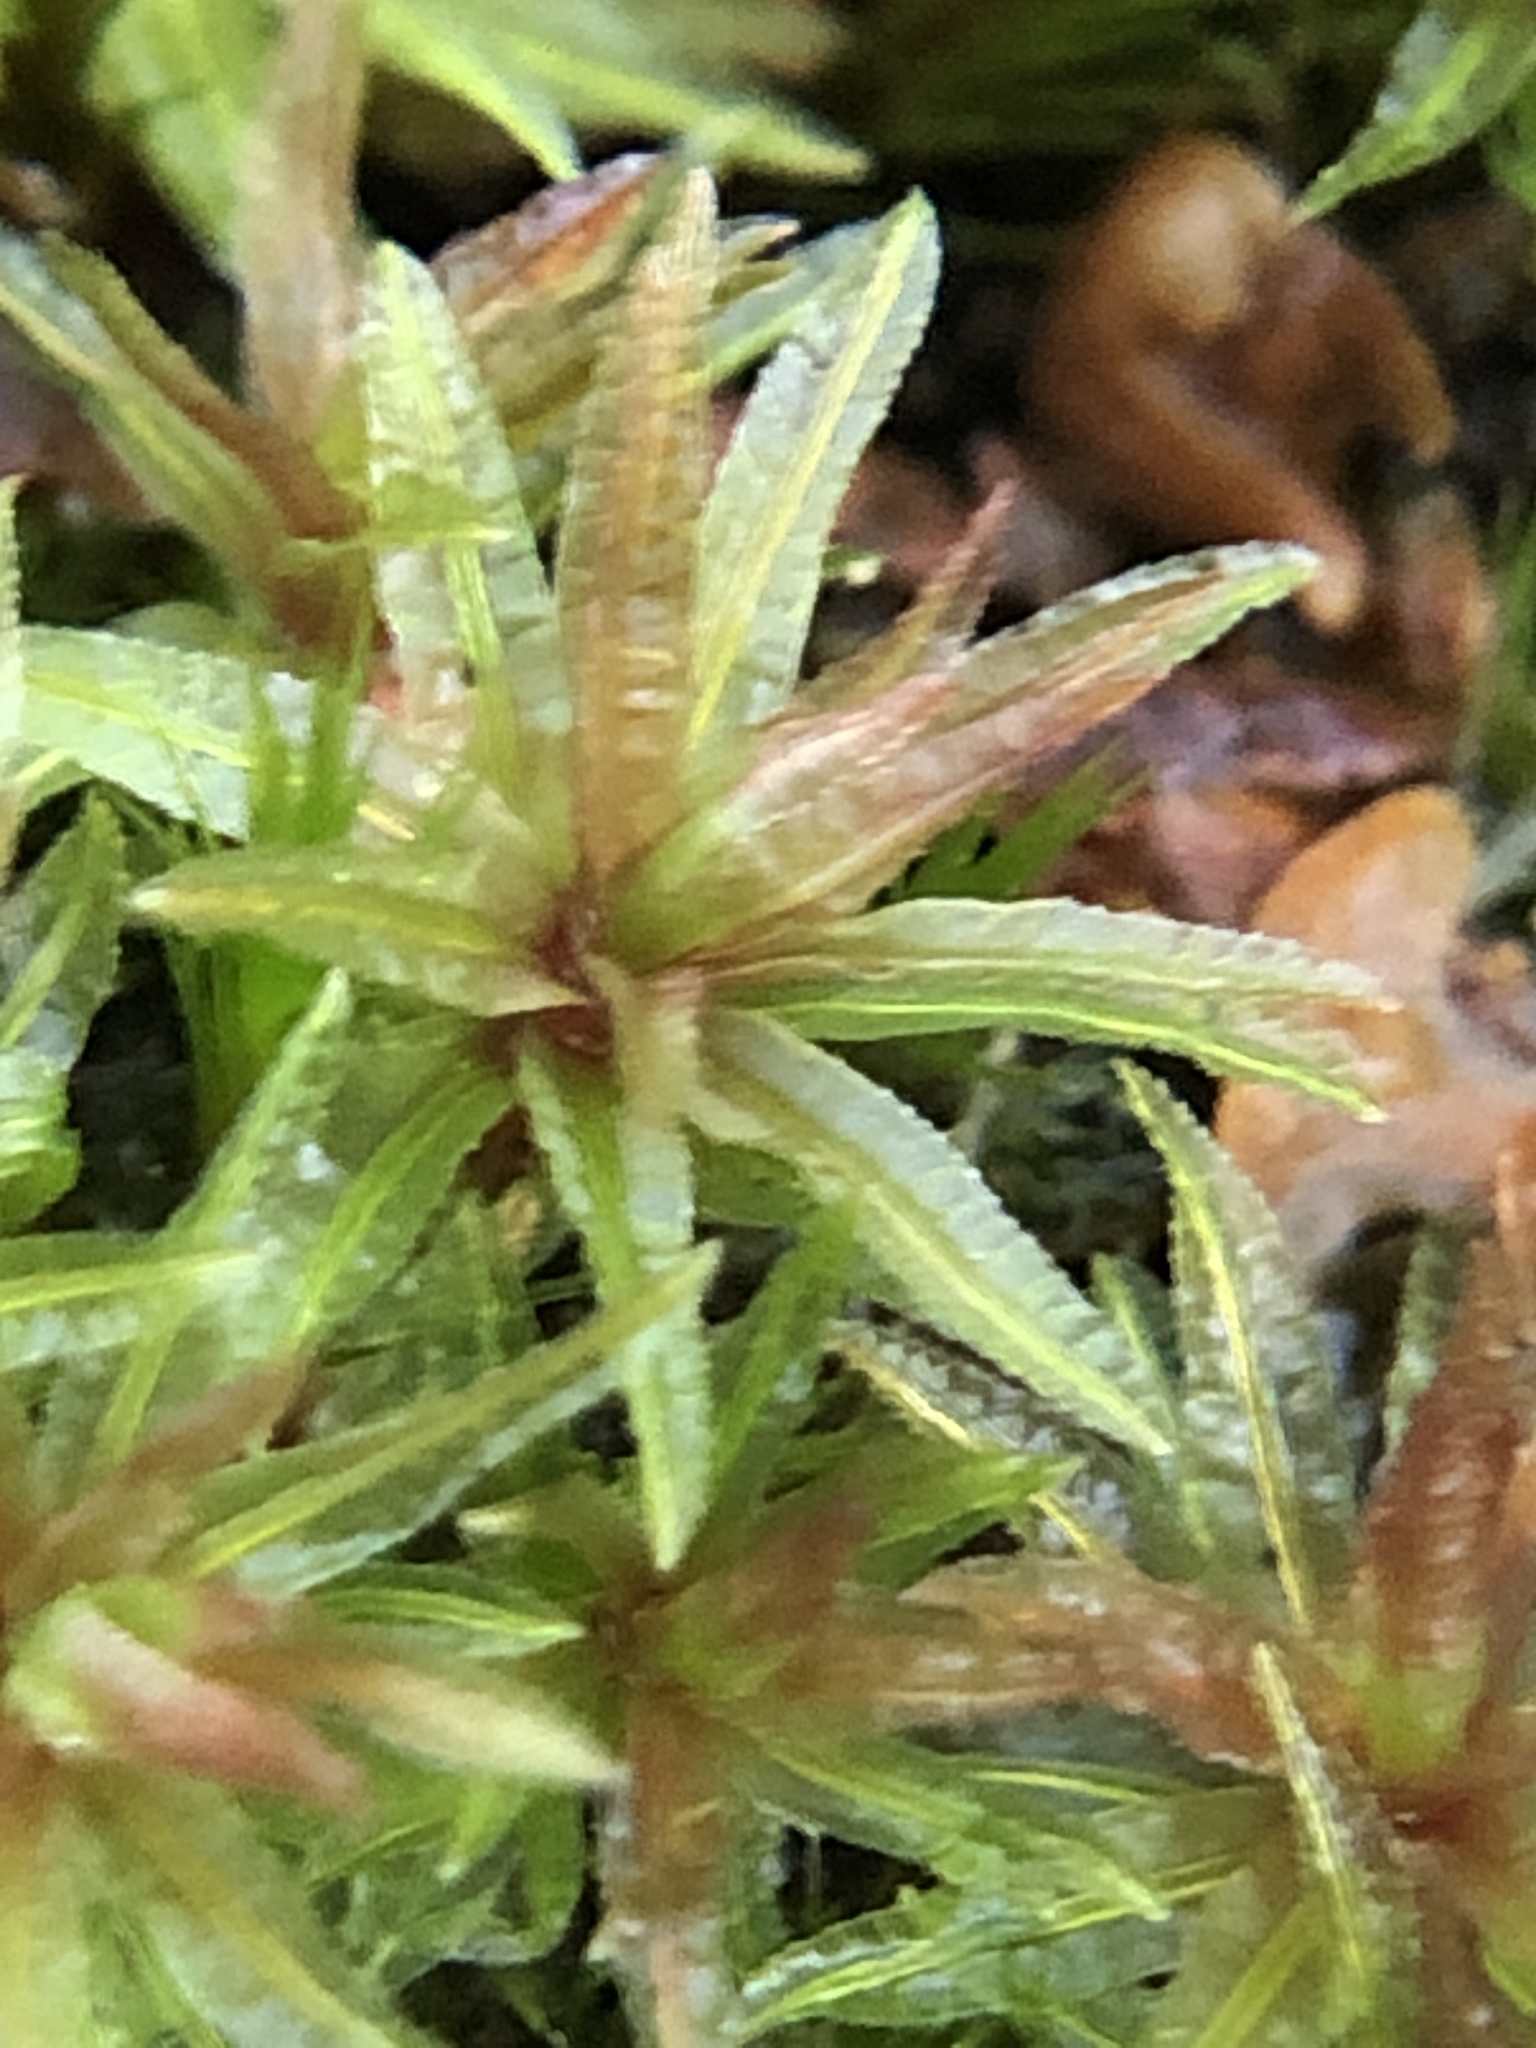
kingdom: Plantae
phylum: Bryophyta
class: Polytrichopsida
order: Polytrichales
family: Polytrichaceae
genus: Atrichum
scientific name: Atrichum undulatum
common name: Common smoothcap
